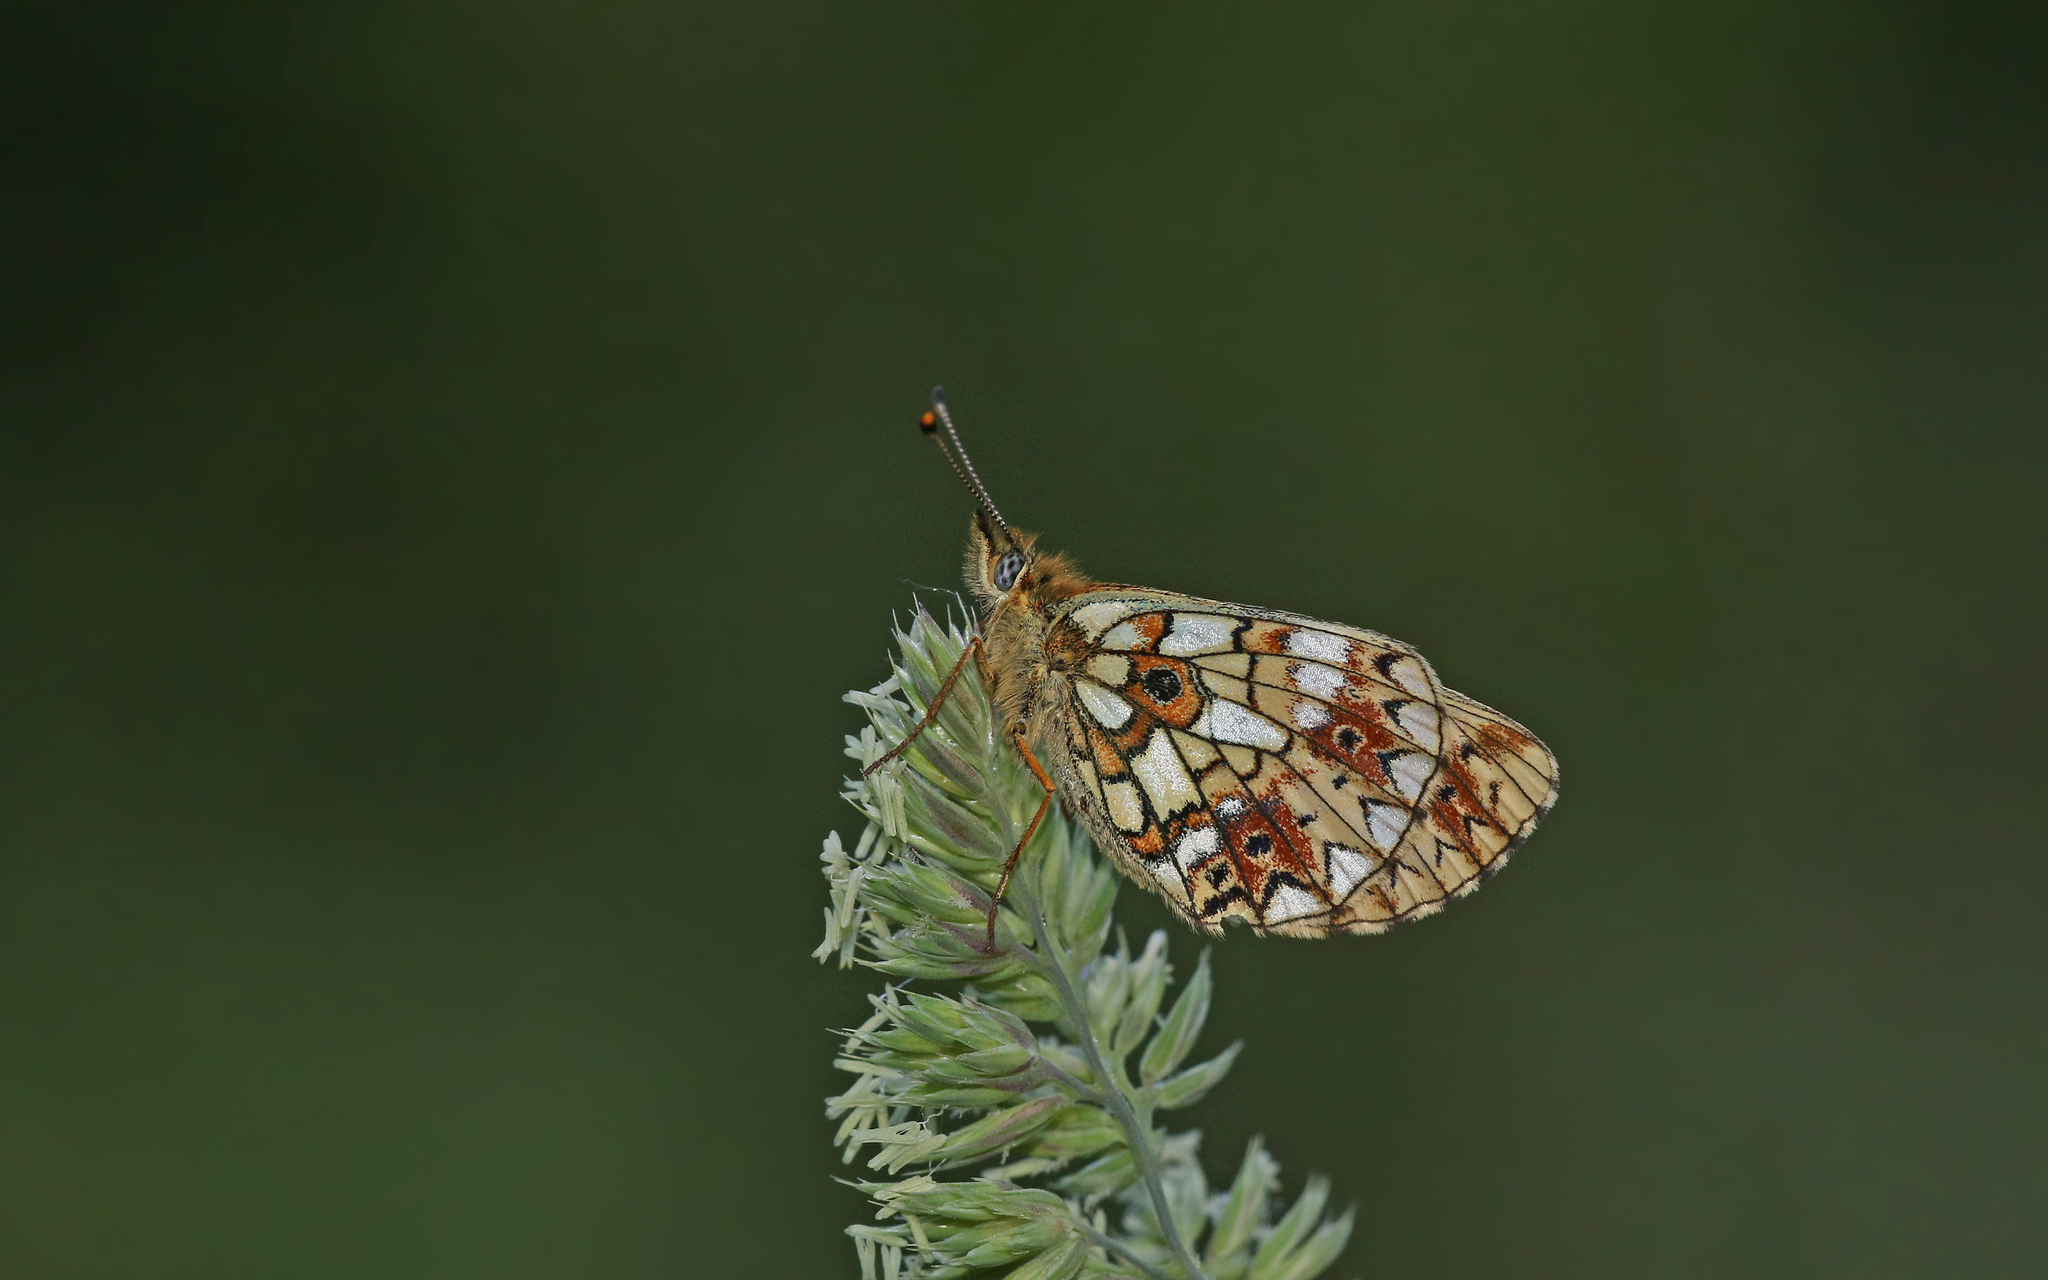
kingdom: Animalia
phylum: Arthropoda
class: Insecta
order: Lepidoptera
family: Nymphalidae
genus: Boloria
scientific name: Boloria selene
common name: Small pearl-bordered fritillary
